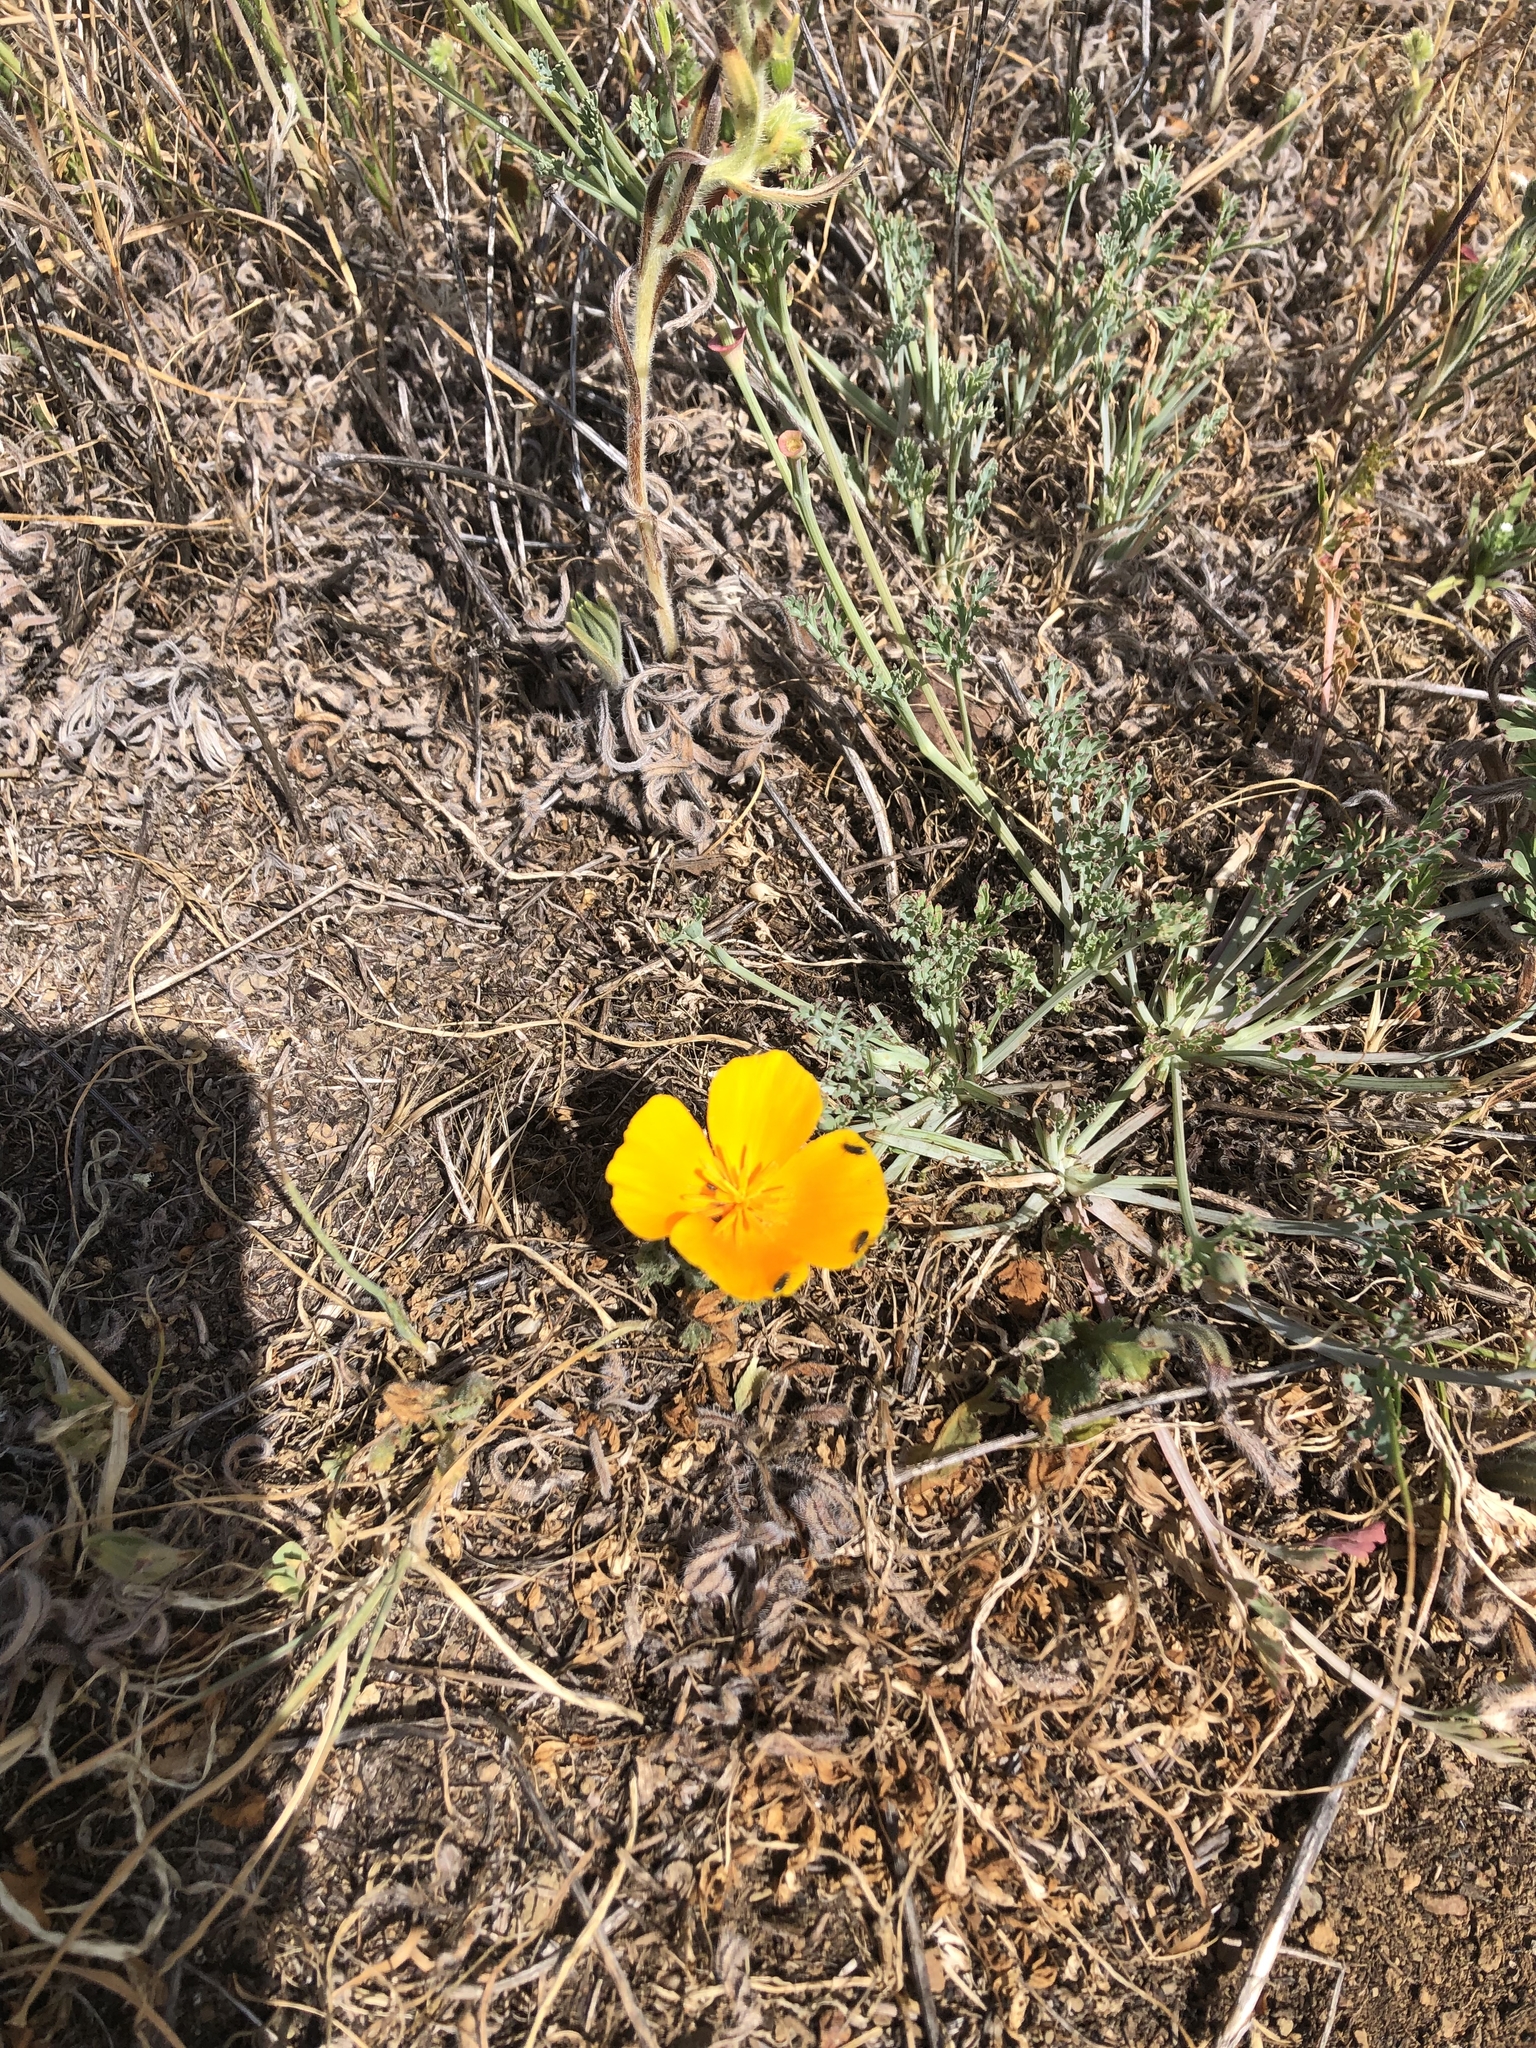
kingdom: Plantae
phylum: Tracheophyta
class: Magnoliopsida
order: Ranunculales
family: Papaveraceae
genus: Eschscholzia
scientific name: Eschscholzia californica
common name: California poppy
